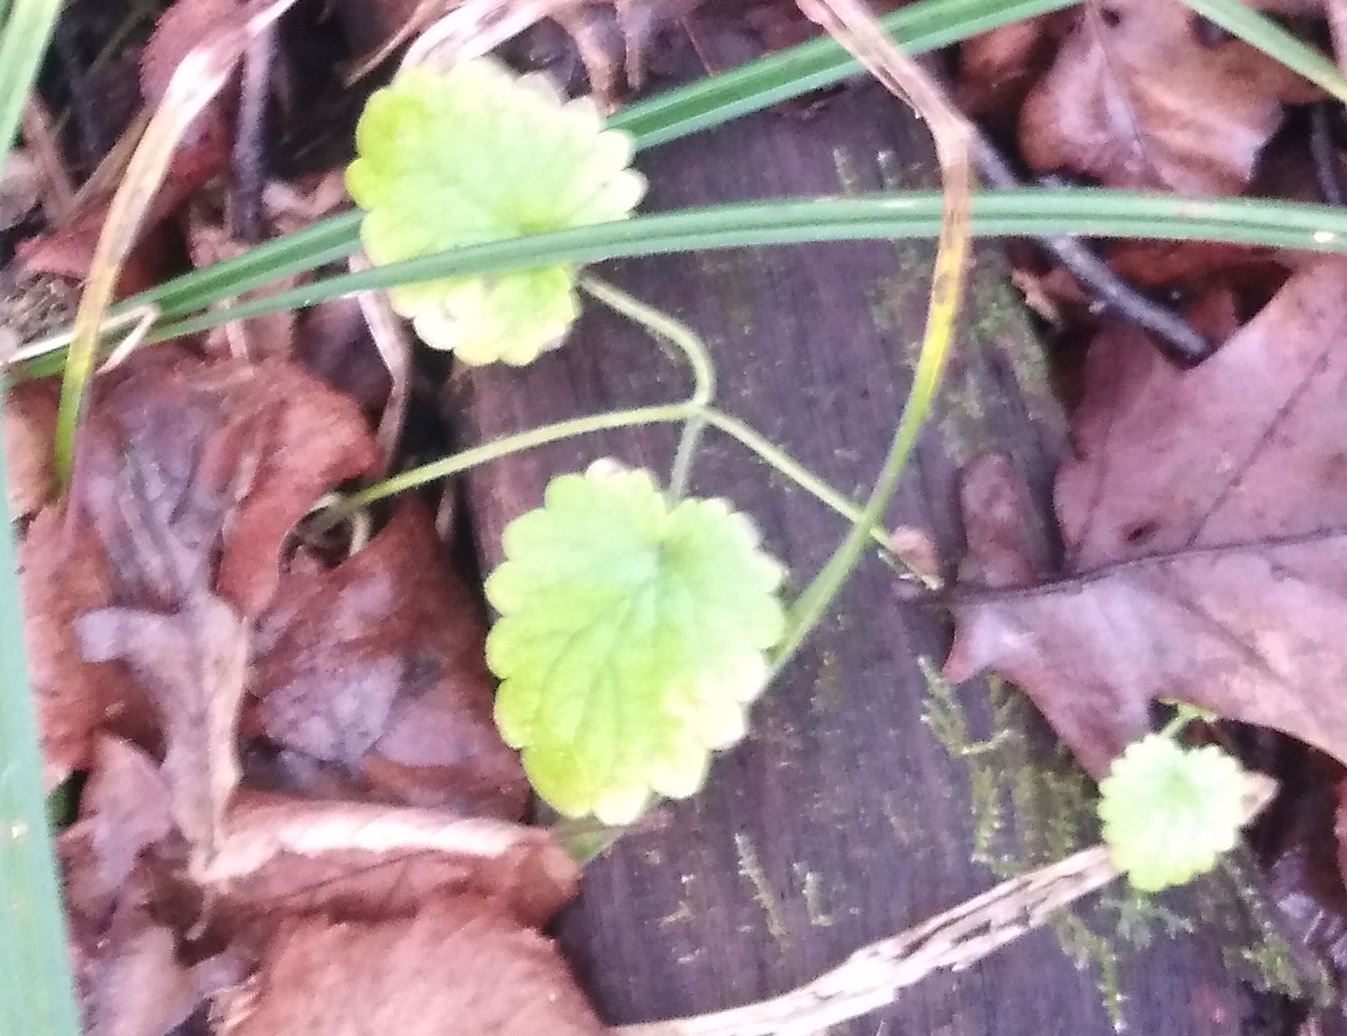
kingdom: Plantae
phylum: Tracheophyta
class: Magnoliopsida
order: Lamiales
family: Lamiaceae
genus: Glechoma
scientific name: Glechoma hederacea
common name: Ground ivy
